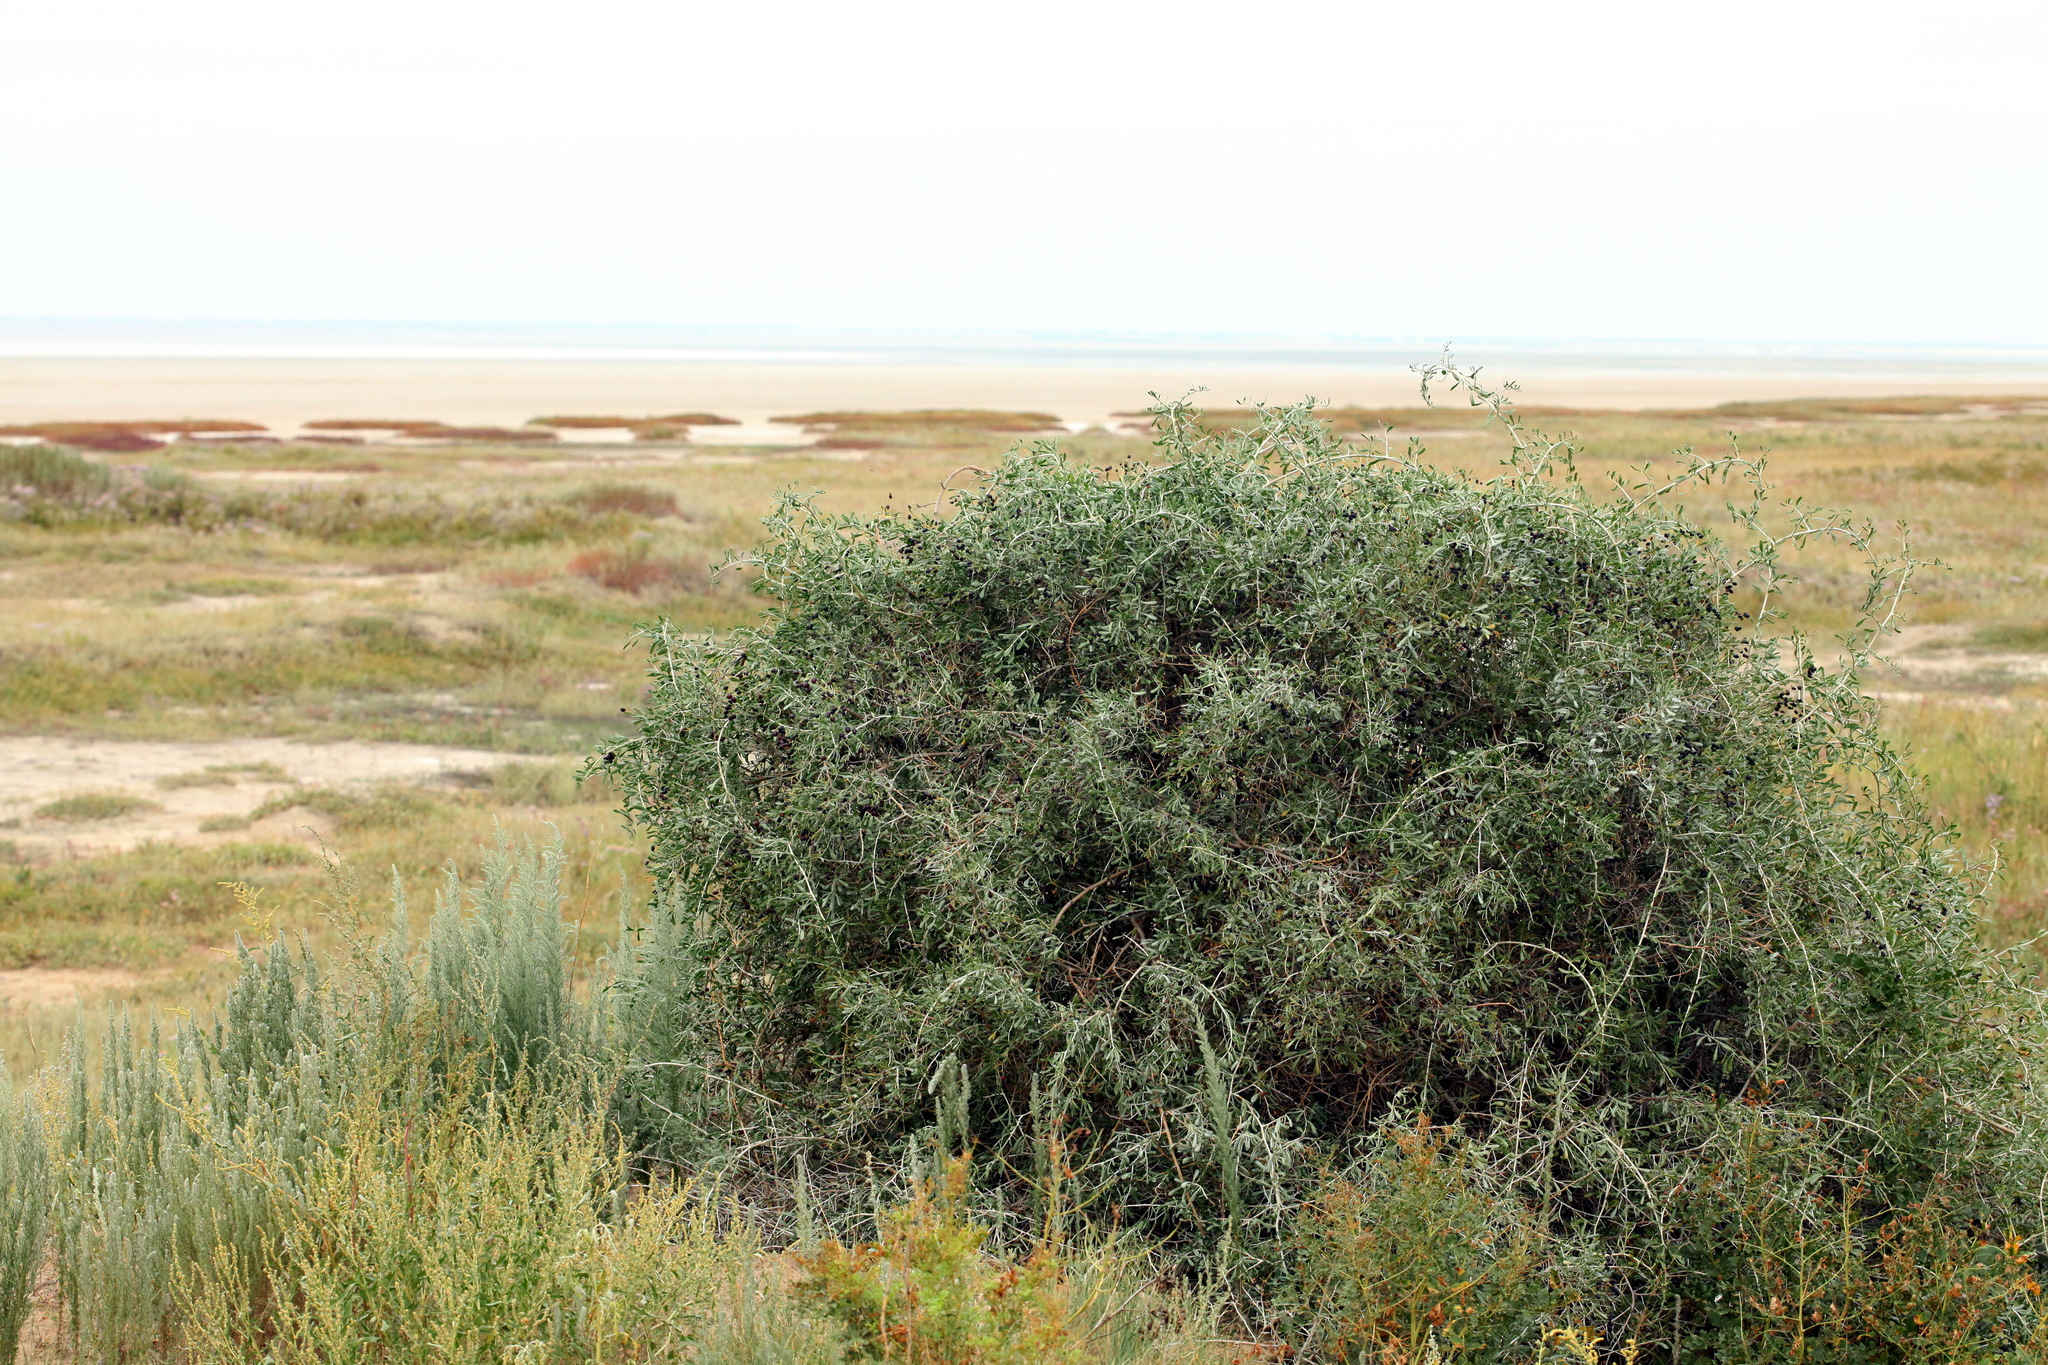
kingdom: Plantae
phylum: Tracheophyta
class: Magnoliopsida
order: Sapindales
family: Nitrariaceae
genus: Nitraria
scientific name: Nitraria schoberi
